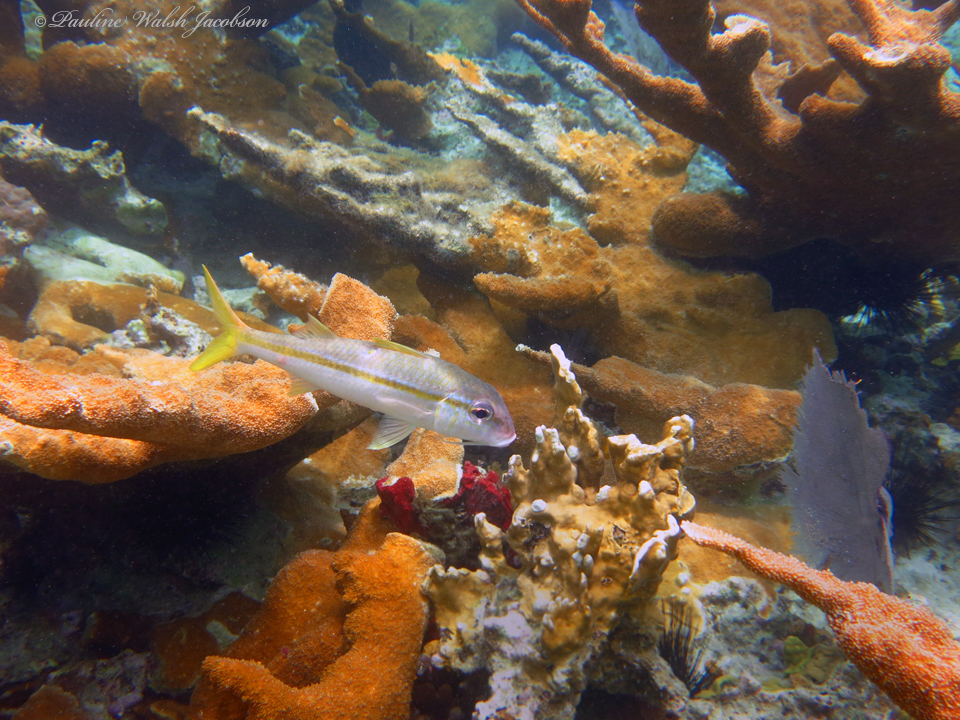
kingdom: Animalia
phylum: Chordata
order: Perciformes
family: Mullidae
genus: Mulloidichthys
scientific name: Mulloidichthys martinicus
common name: Yellow goatfish
